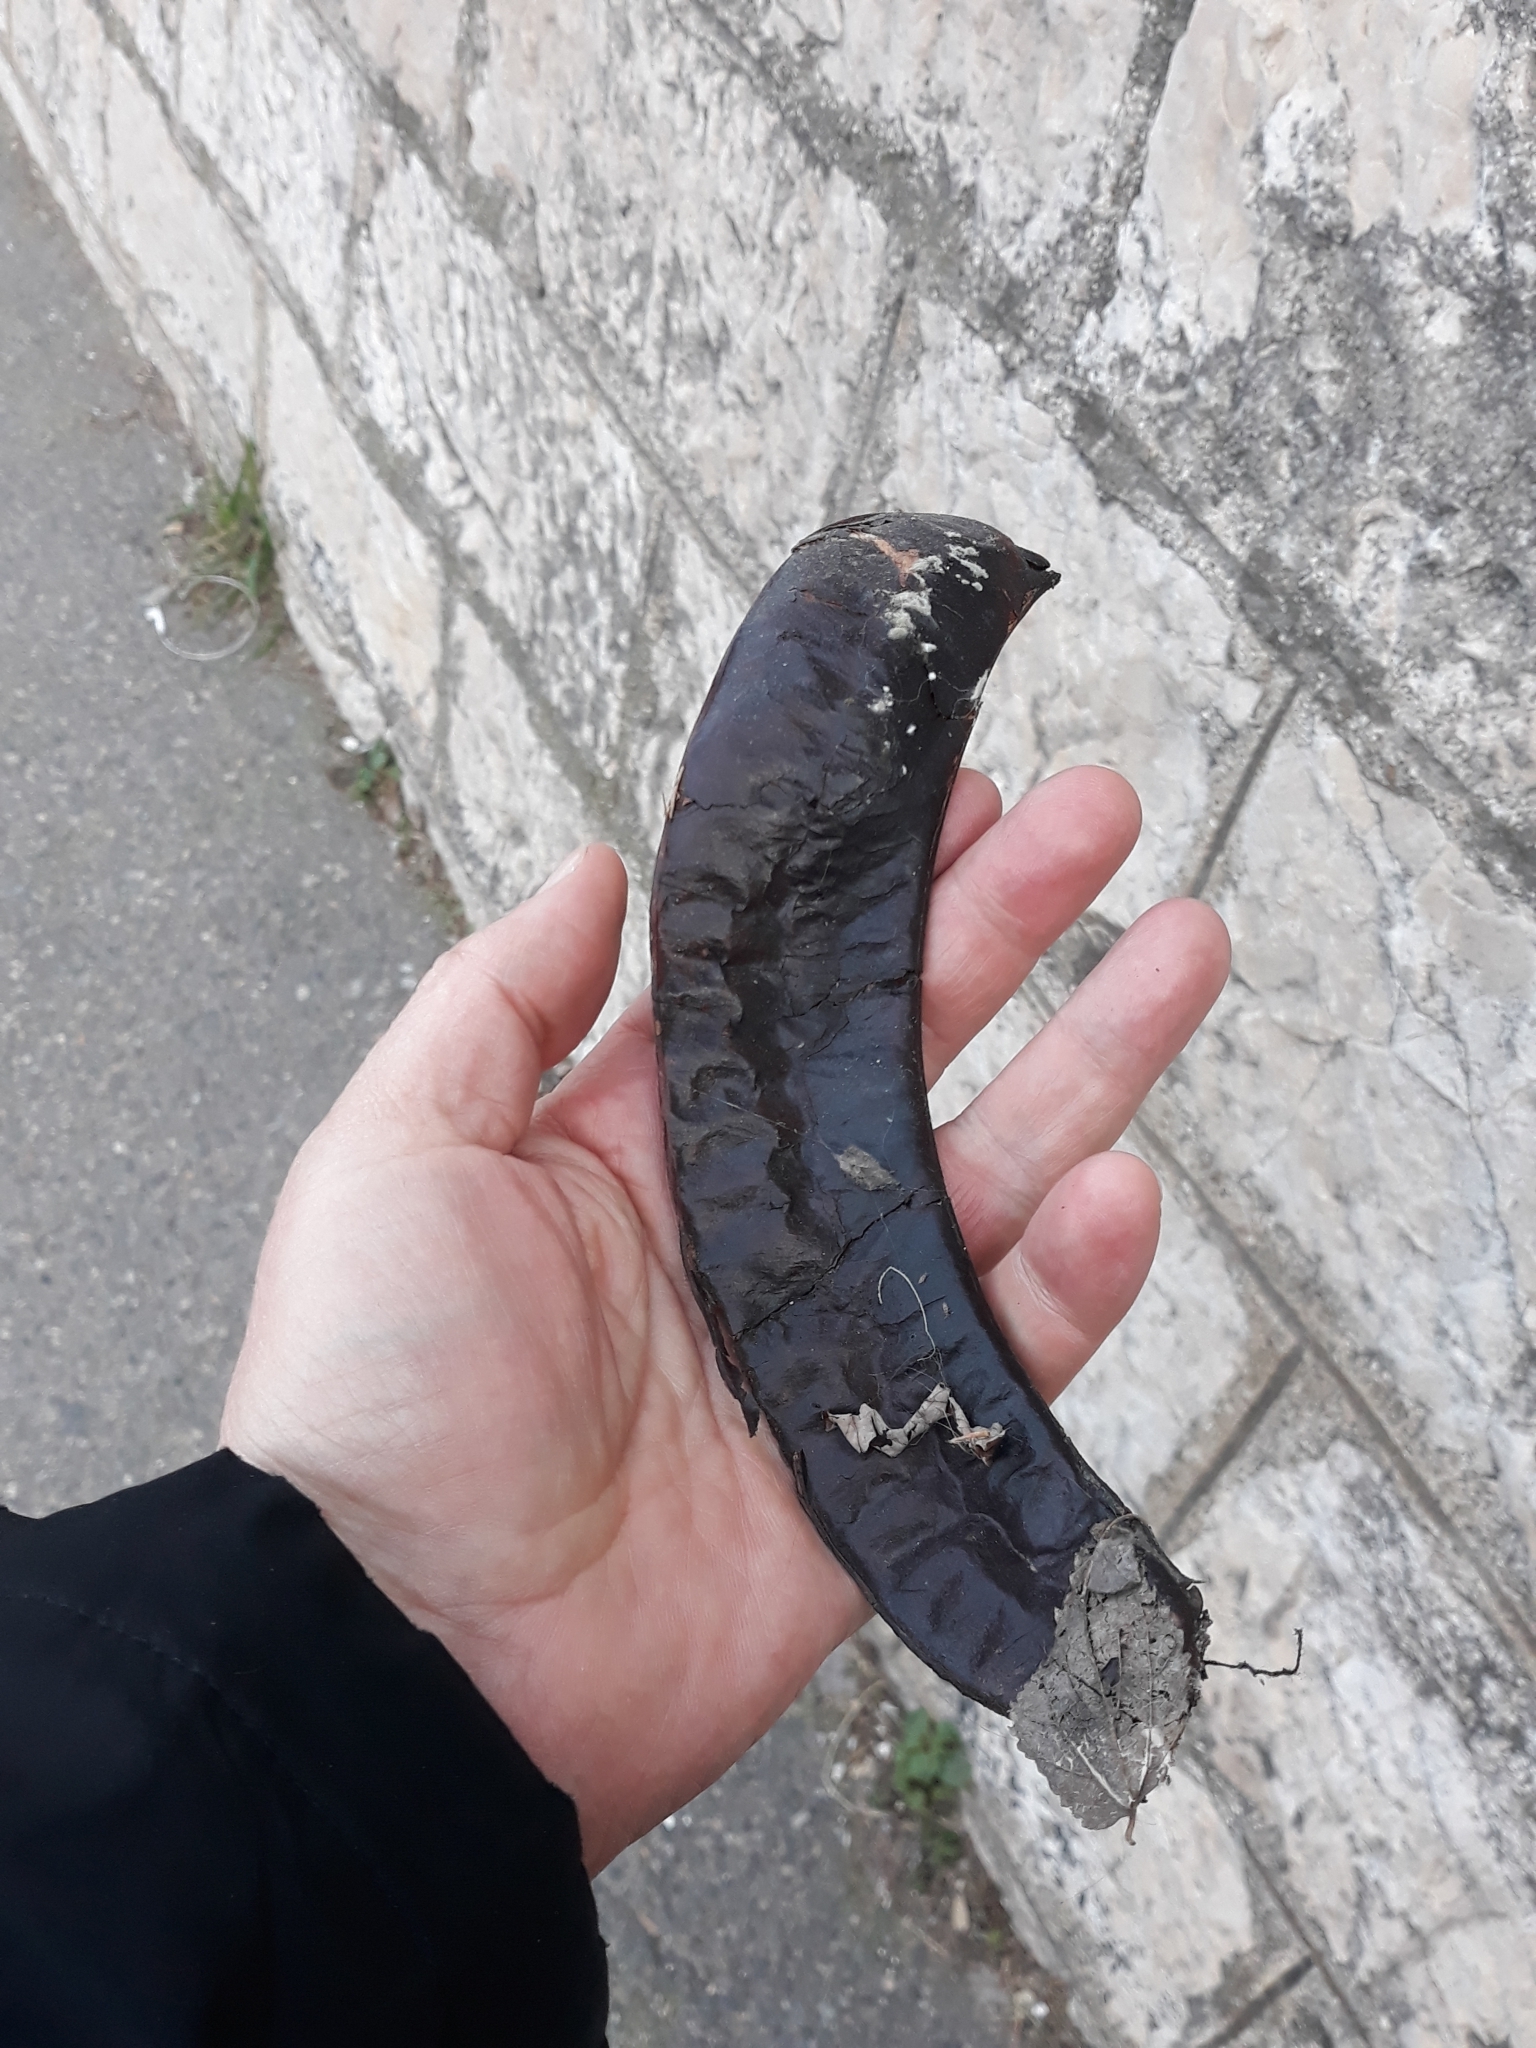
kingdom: Plantae
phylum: Tracheophyta
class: Magnoliopsida
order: Fabales
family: Fabaceae
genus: Gleditsia
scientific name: Gleditsia triacanthos
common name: Common honeylocust
